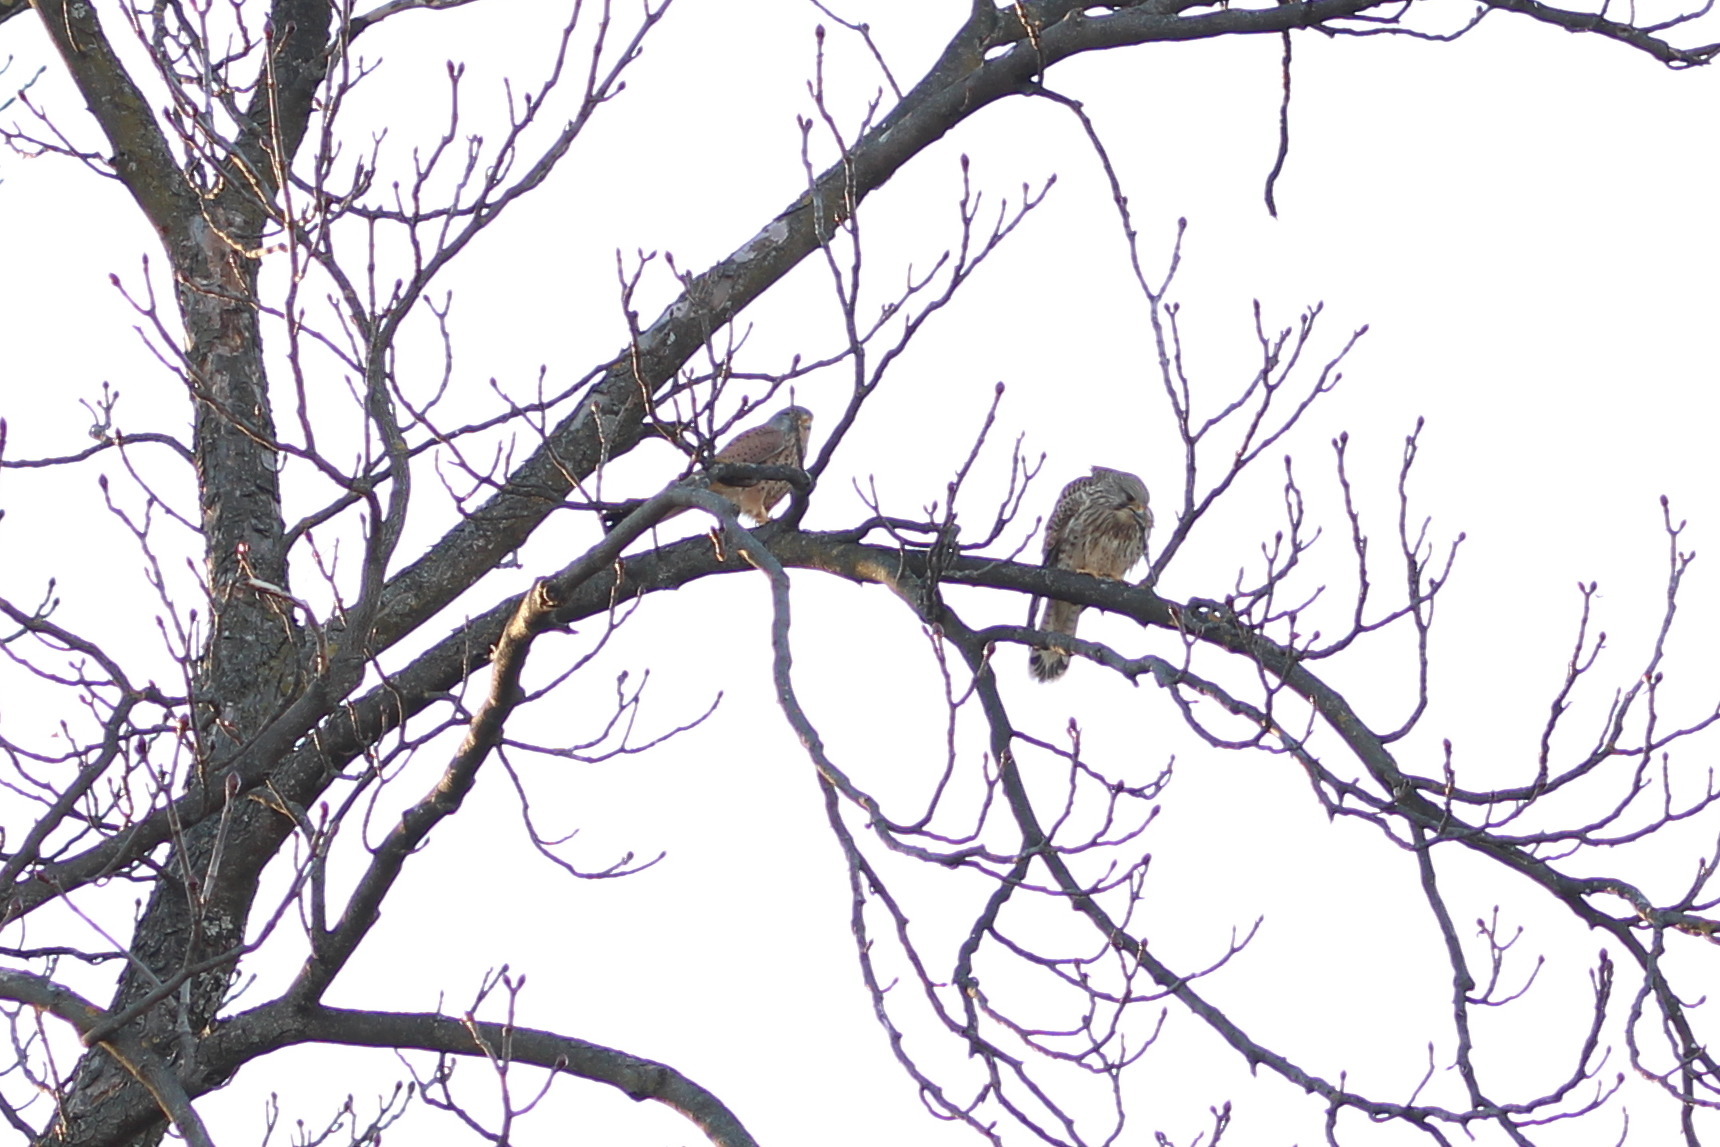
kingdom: Animalia
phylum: Chordata
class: Aves
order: Falconiformes
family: Falconidae
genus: Falco
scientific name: Falco tinnunculus
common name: Common kestrel
